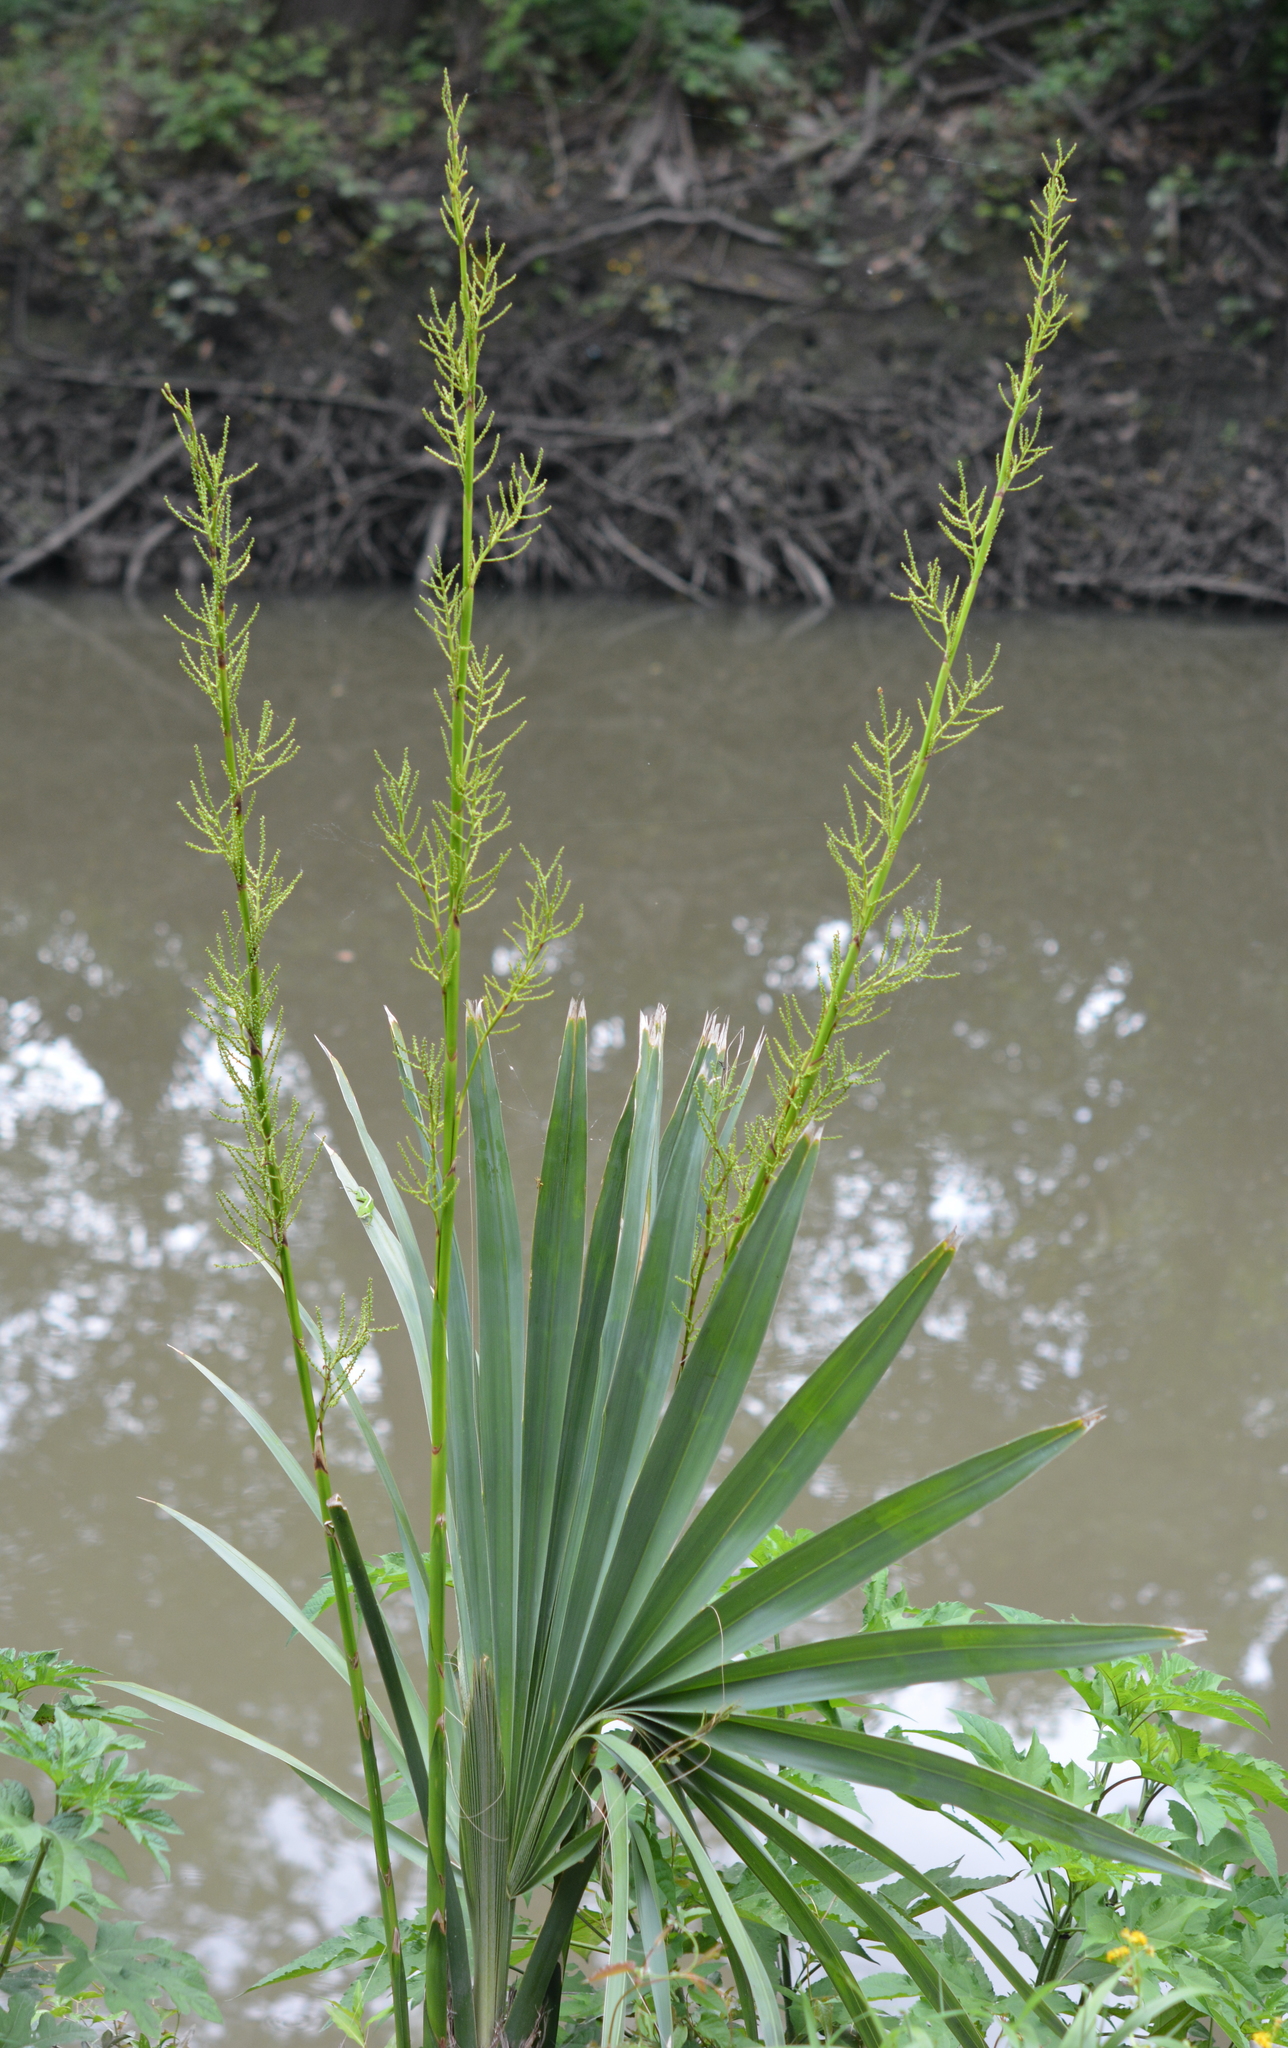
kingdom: Plantae
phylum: Tracheophyta
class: Liliopsida
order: Arecales
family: Arecaceae
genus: Sabal
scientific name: Sabal minor
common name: Dwarf palmetto
